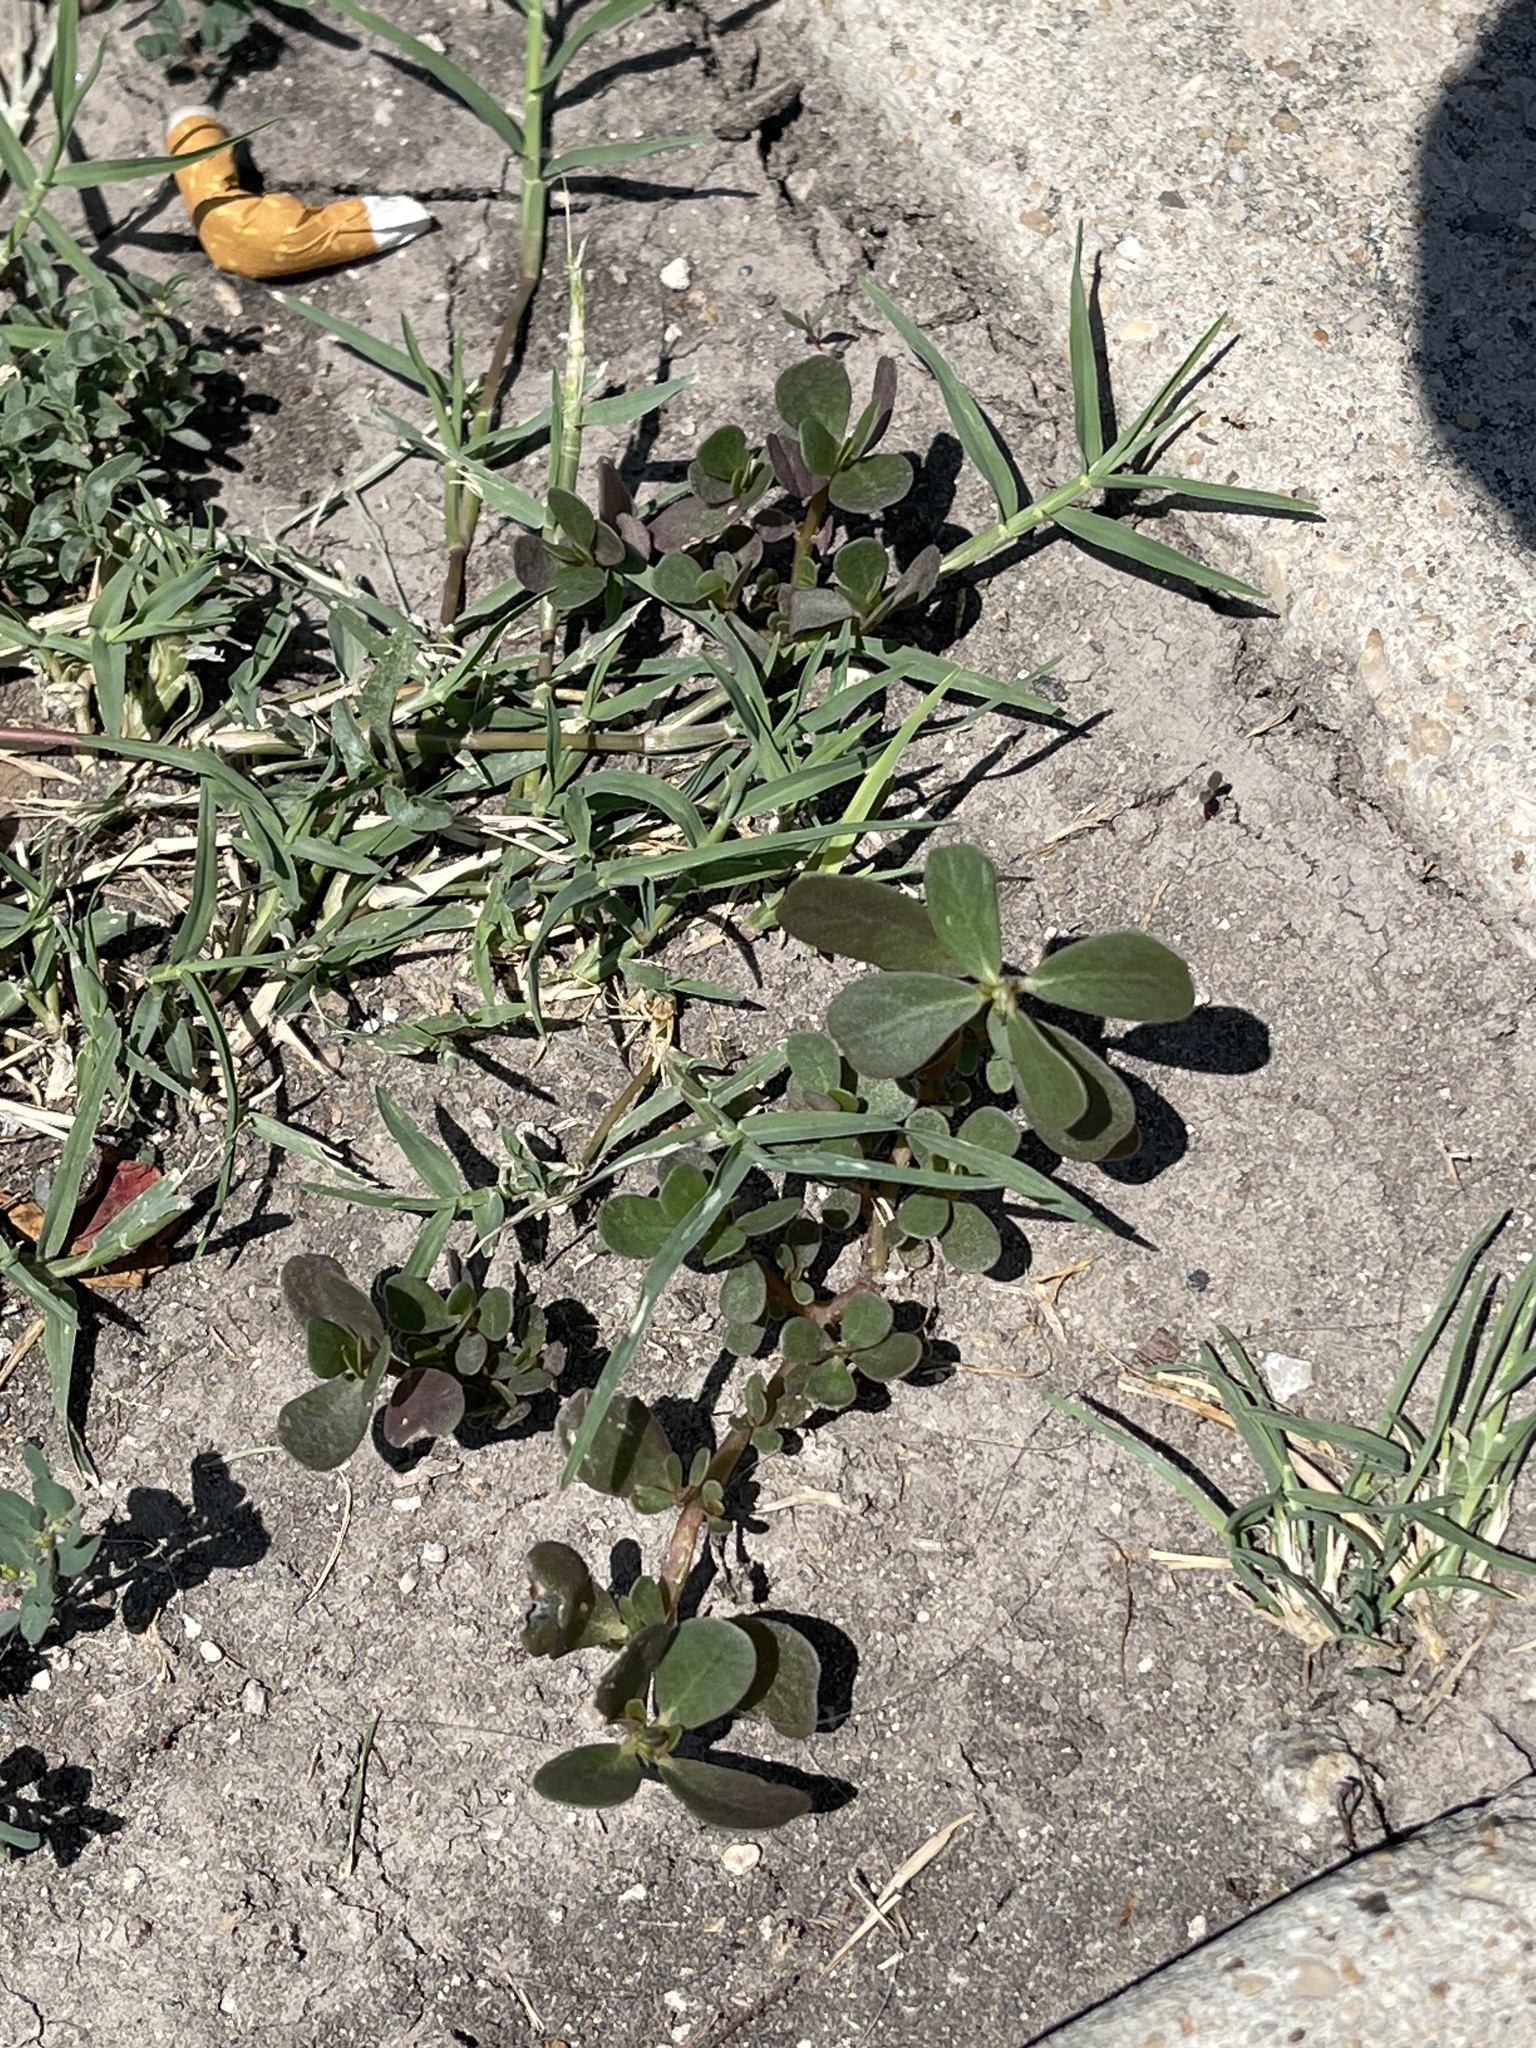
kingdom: Plantae
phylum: Tracheophyta
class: Magnoliopsida
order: Caryophyllales
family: Portulacaceae
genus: Portulaca
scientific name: Portulaca oleracea
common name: Common purslane
